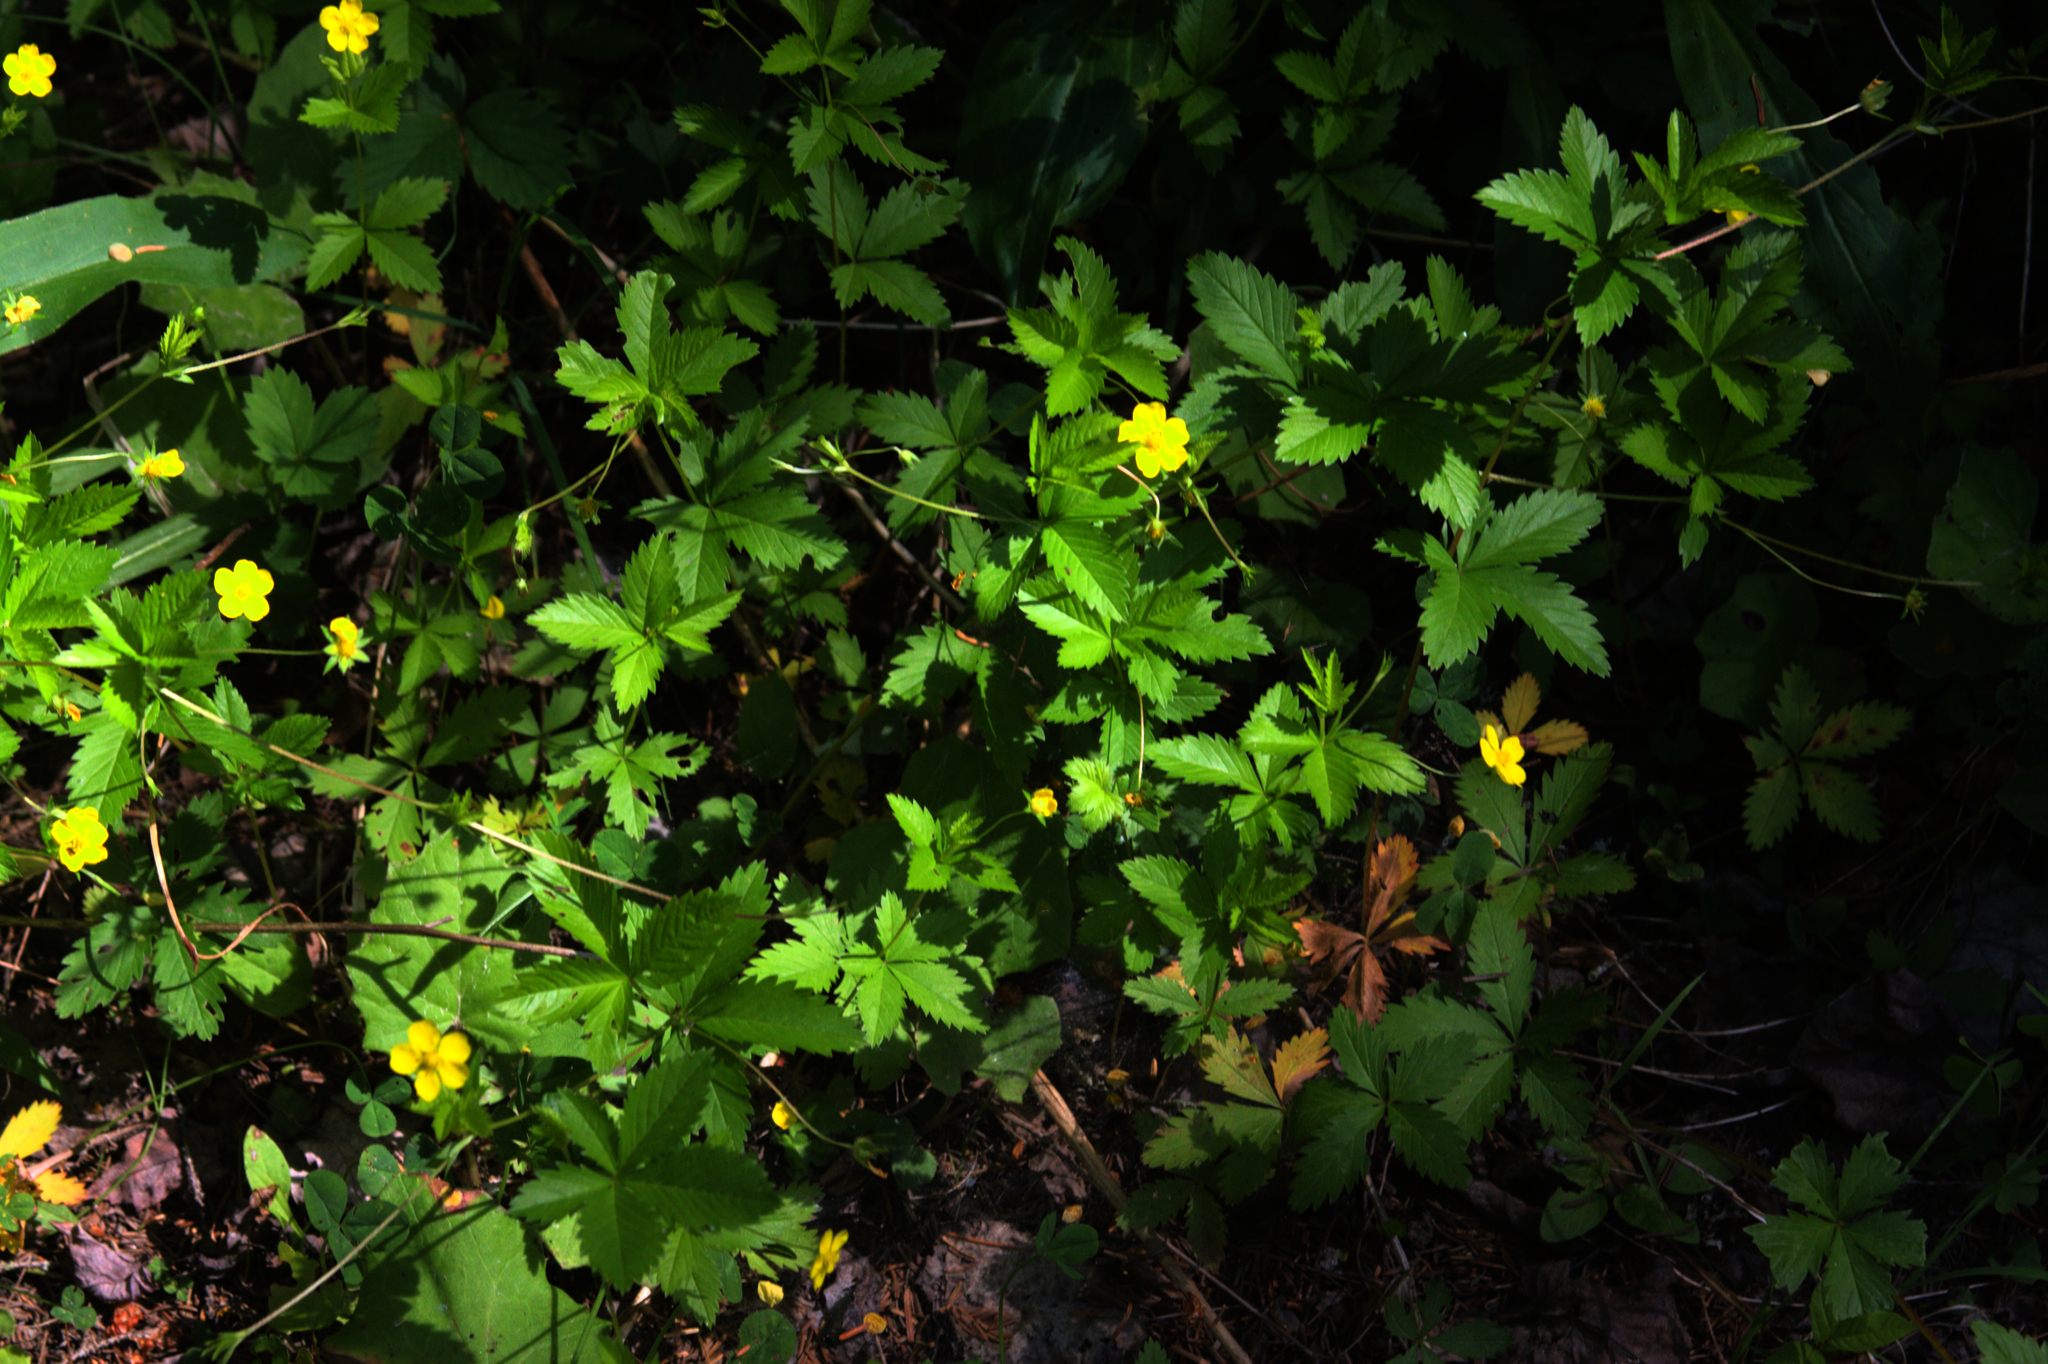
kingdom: Plantae
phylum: Tracheophyta
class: Magnoliopsida
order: Rosales
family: Rosaceae
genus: Potentilla
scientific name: Potentilla simplex
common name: Old field cinquefoil
